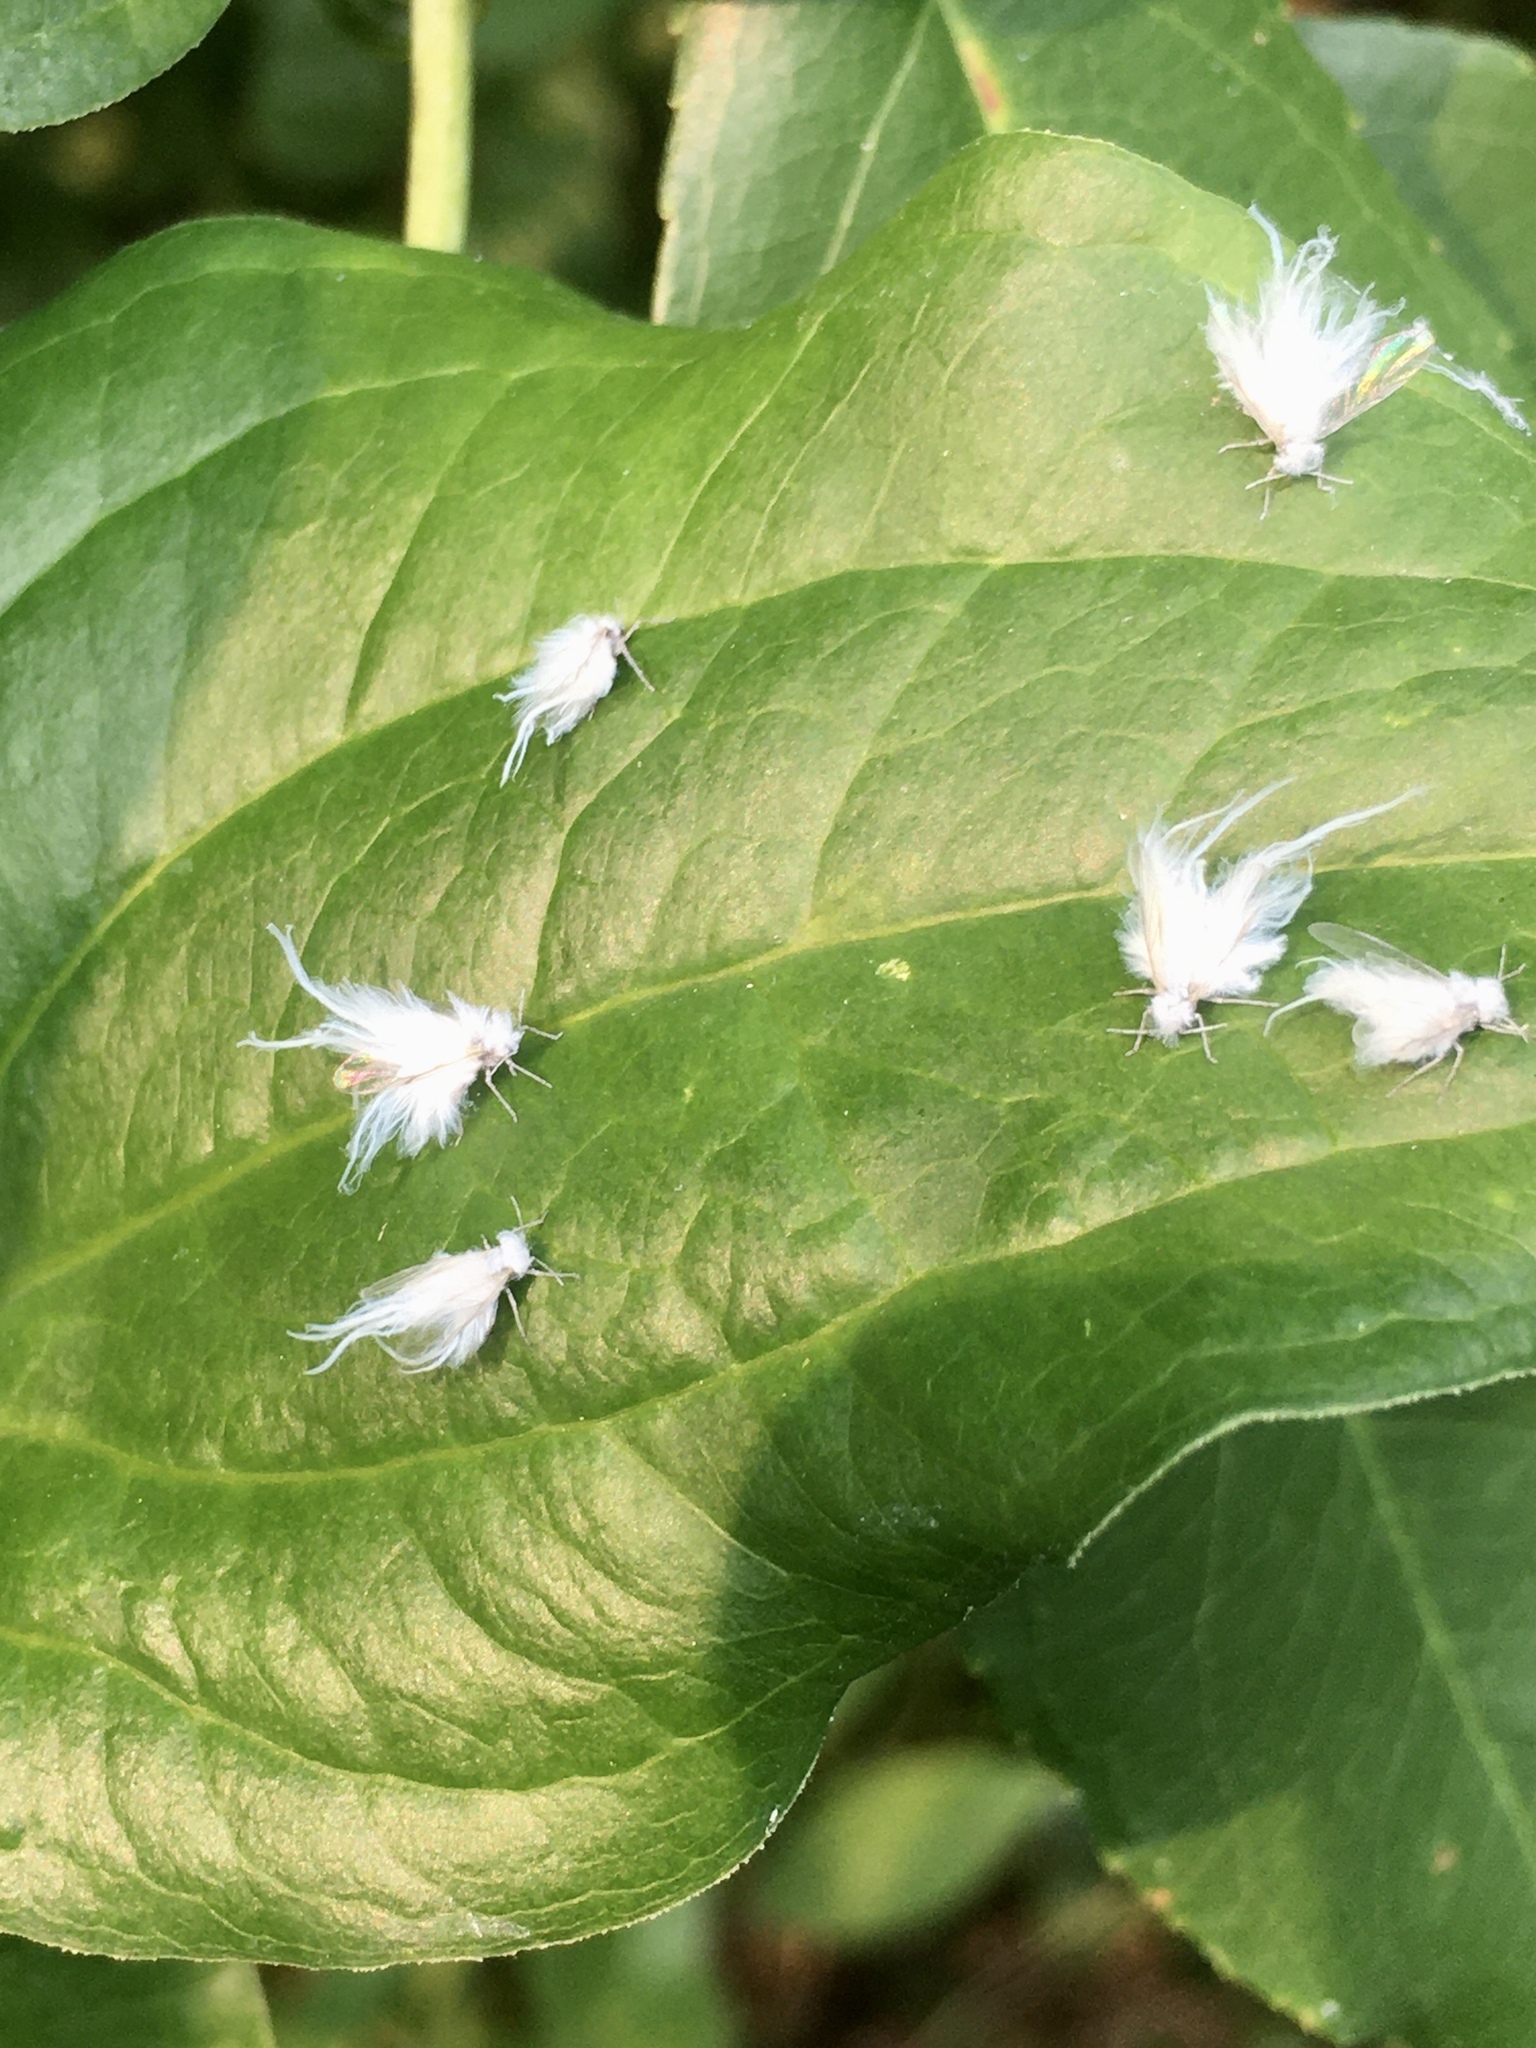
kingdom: Animalia
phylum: Arthropoda
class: Insecta
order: Hemiptera
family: Aphididae
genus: Neoprociphilus
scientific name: Neoprociphilus aceris
